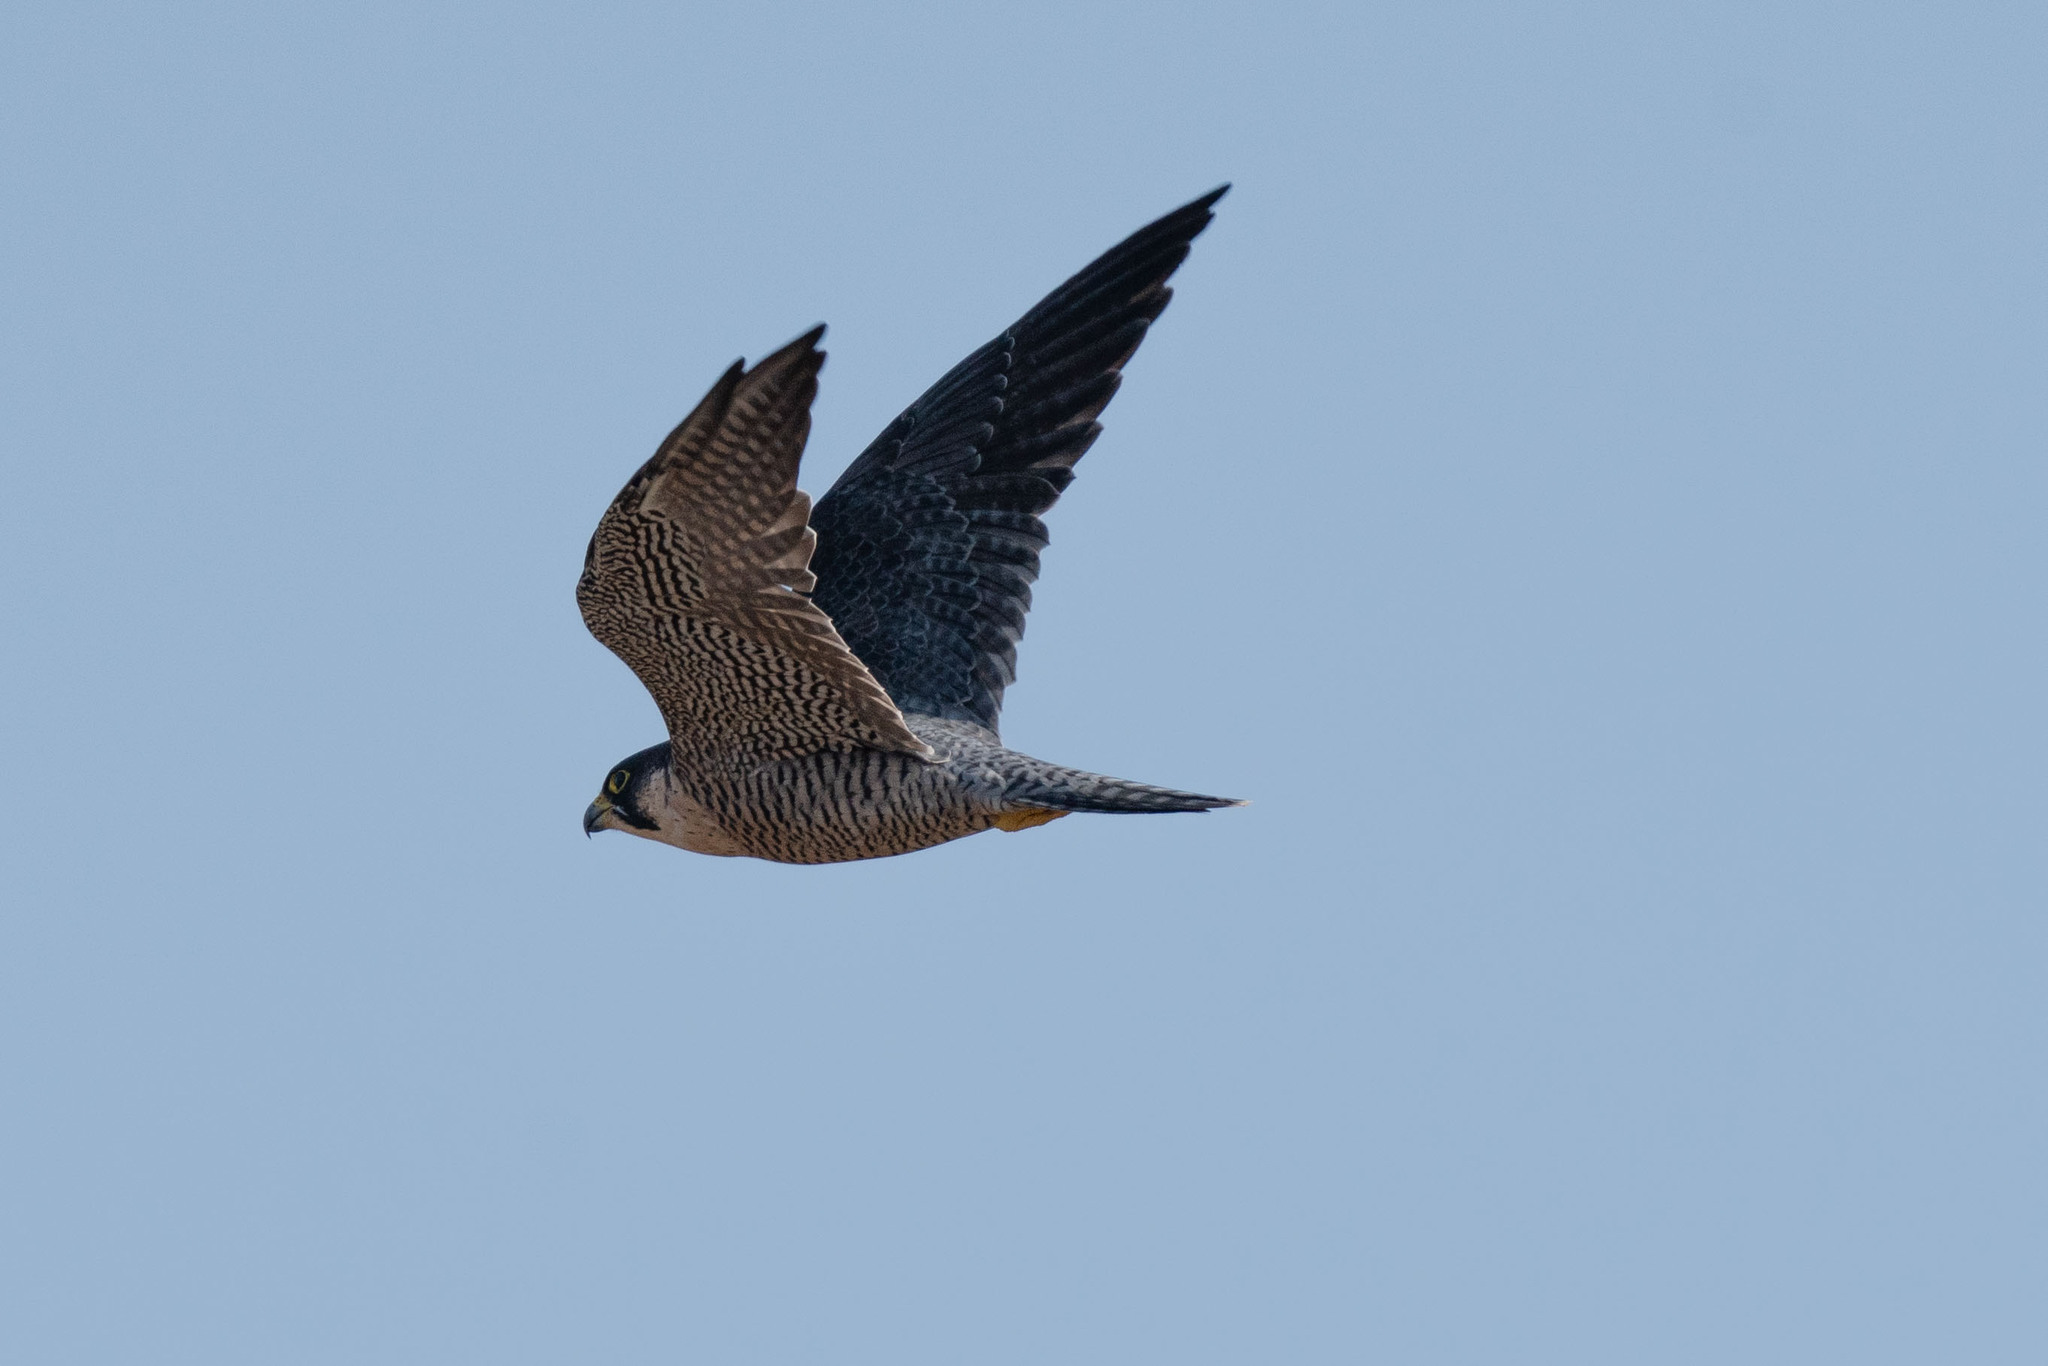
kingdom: Animalia
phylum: Chordata
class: Aves
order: Falconiformes
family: Falconidae
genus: Falco
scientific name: Falco peregrinus
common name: Peregrine falcon
